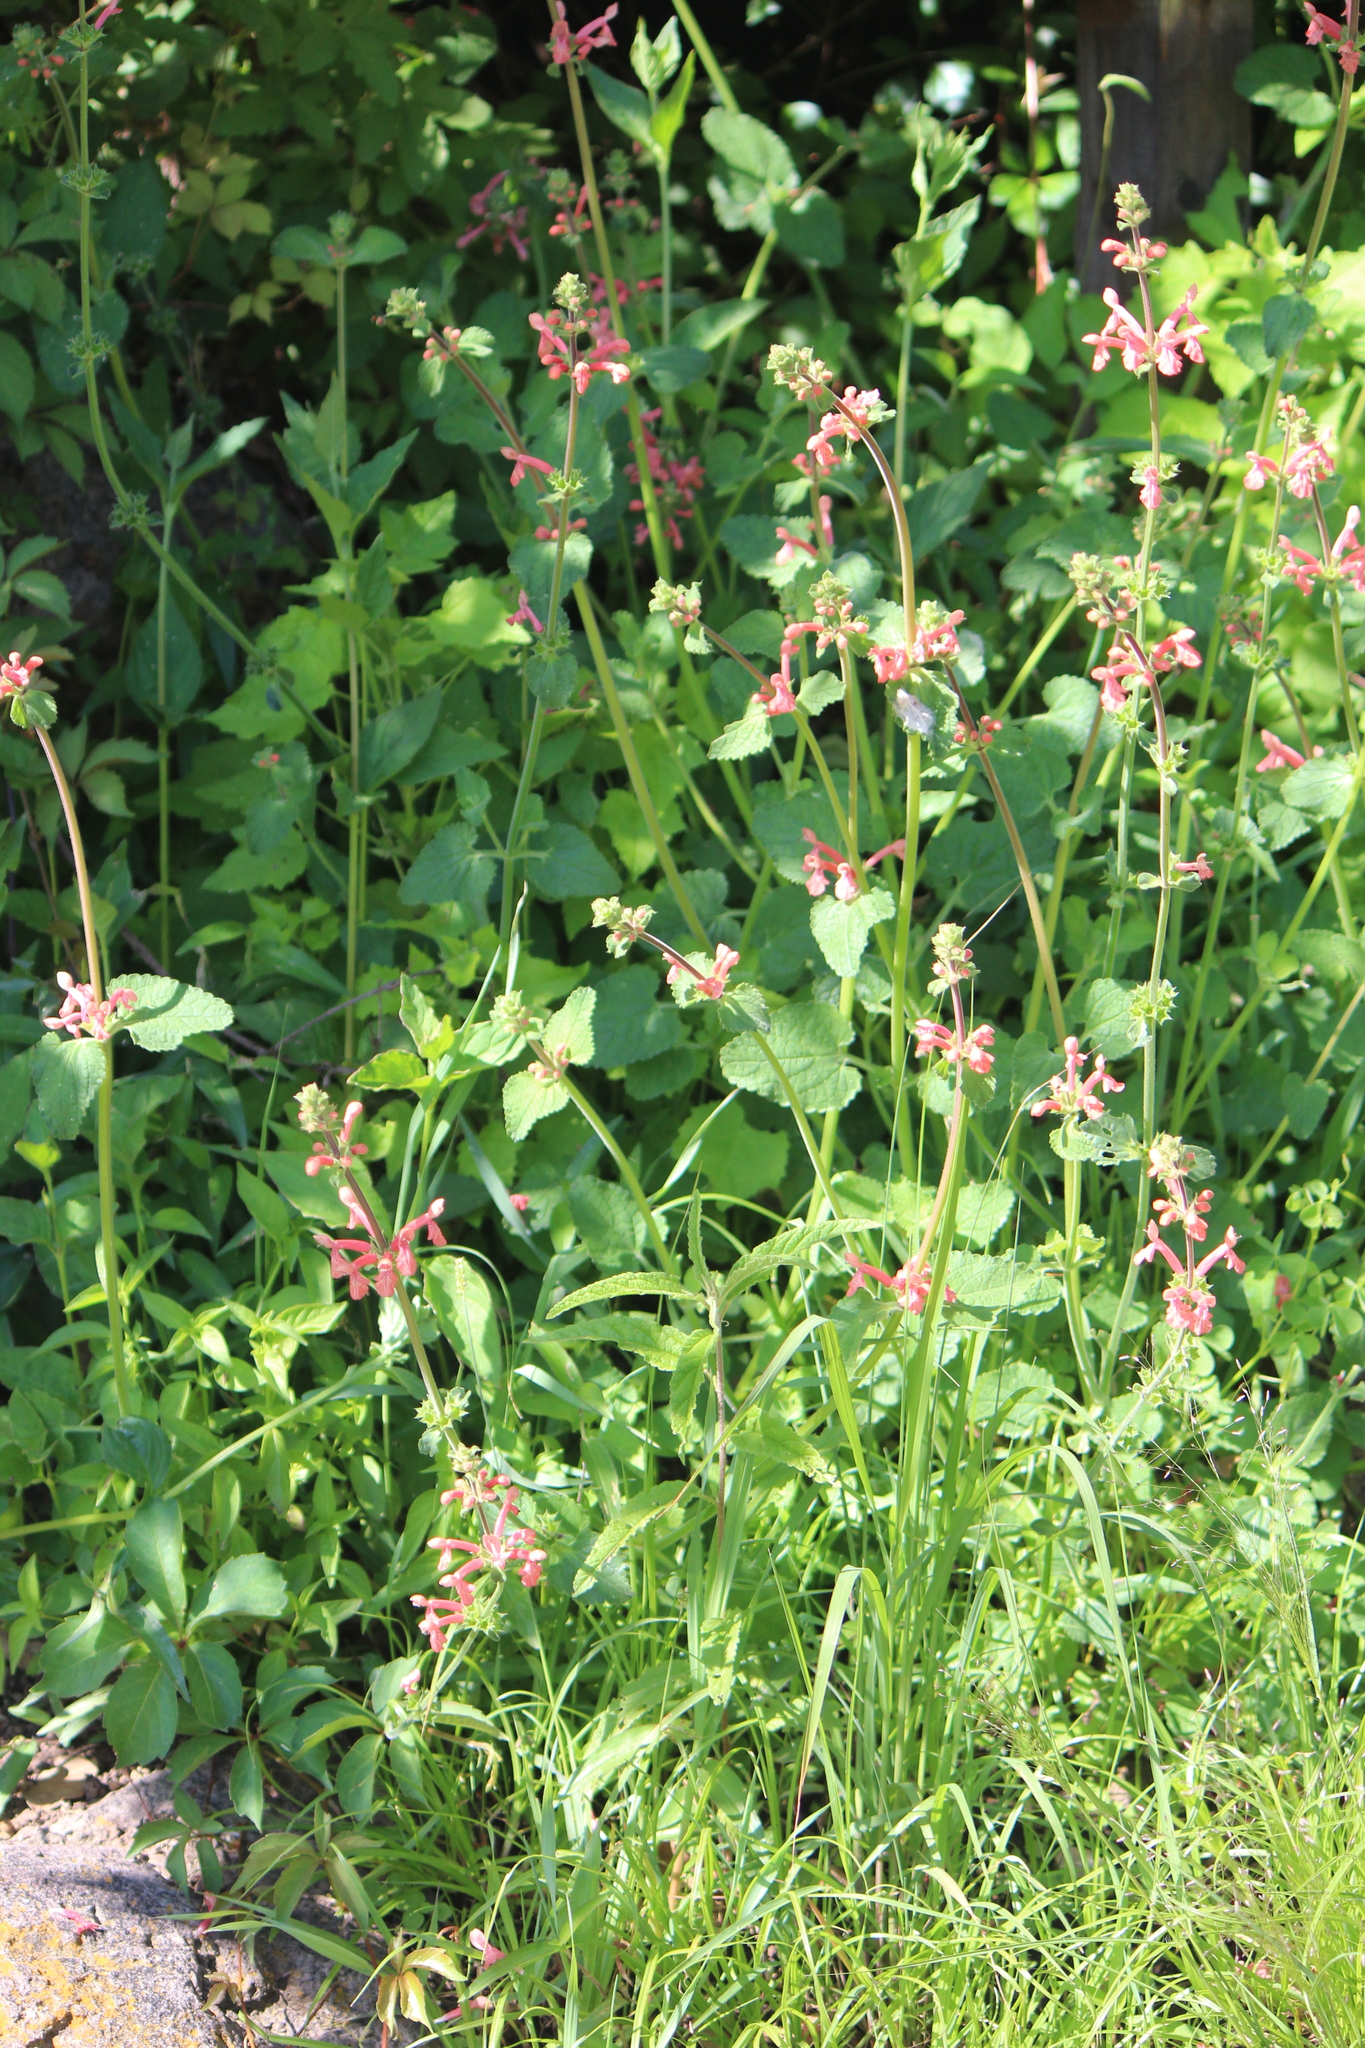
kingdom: Plantae
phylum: Tracheophyta
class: Magnoliopsida
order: Lamiales
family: Lamiaceae
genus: Stachys
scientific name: Stachys coccinea
